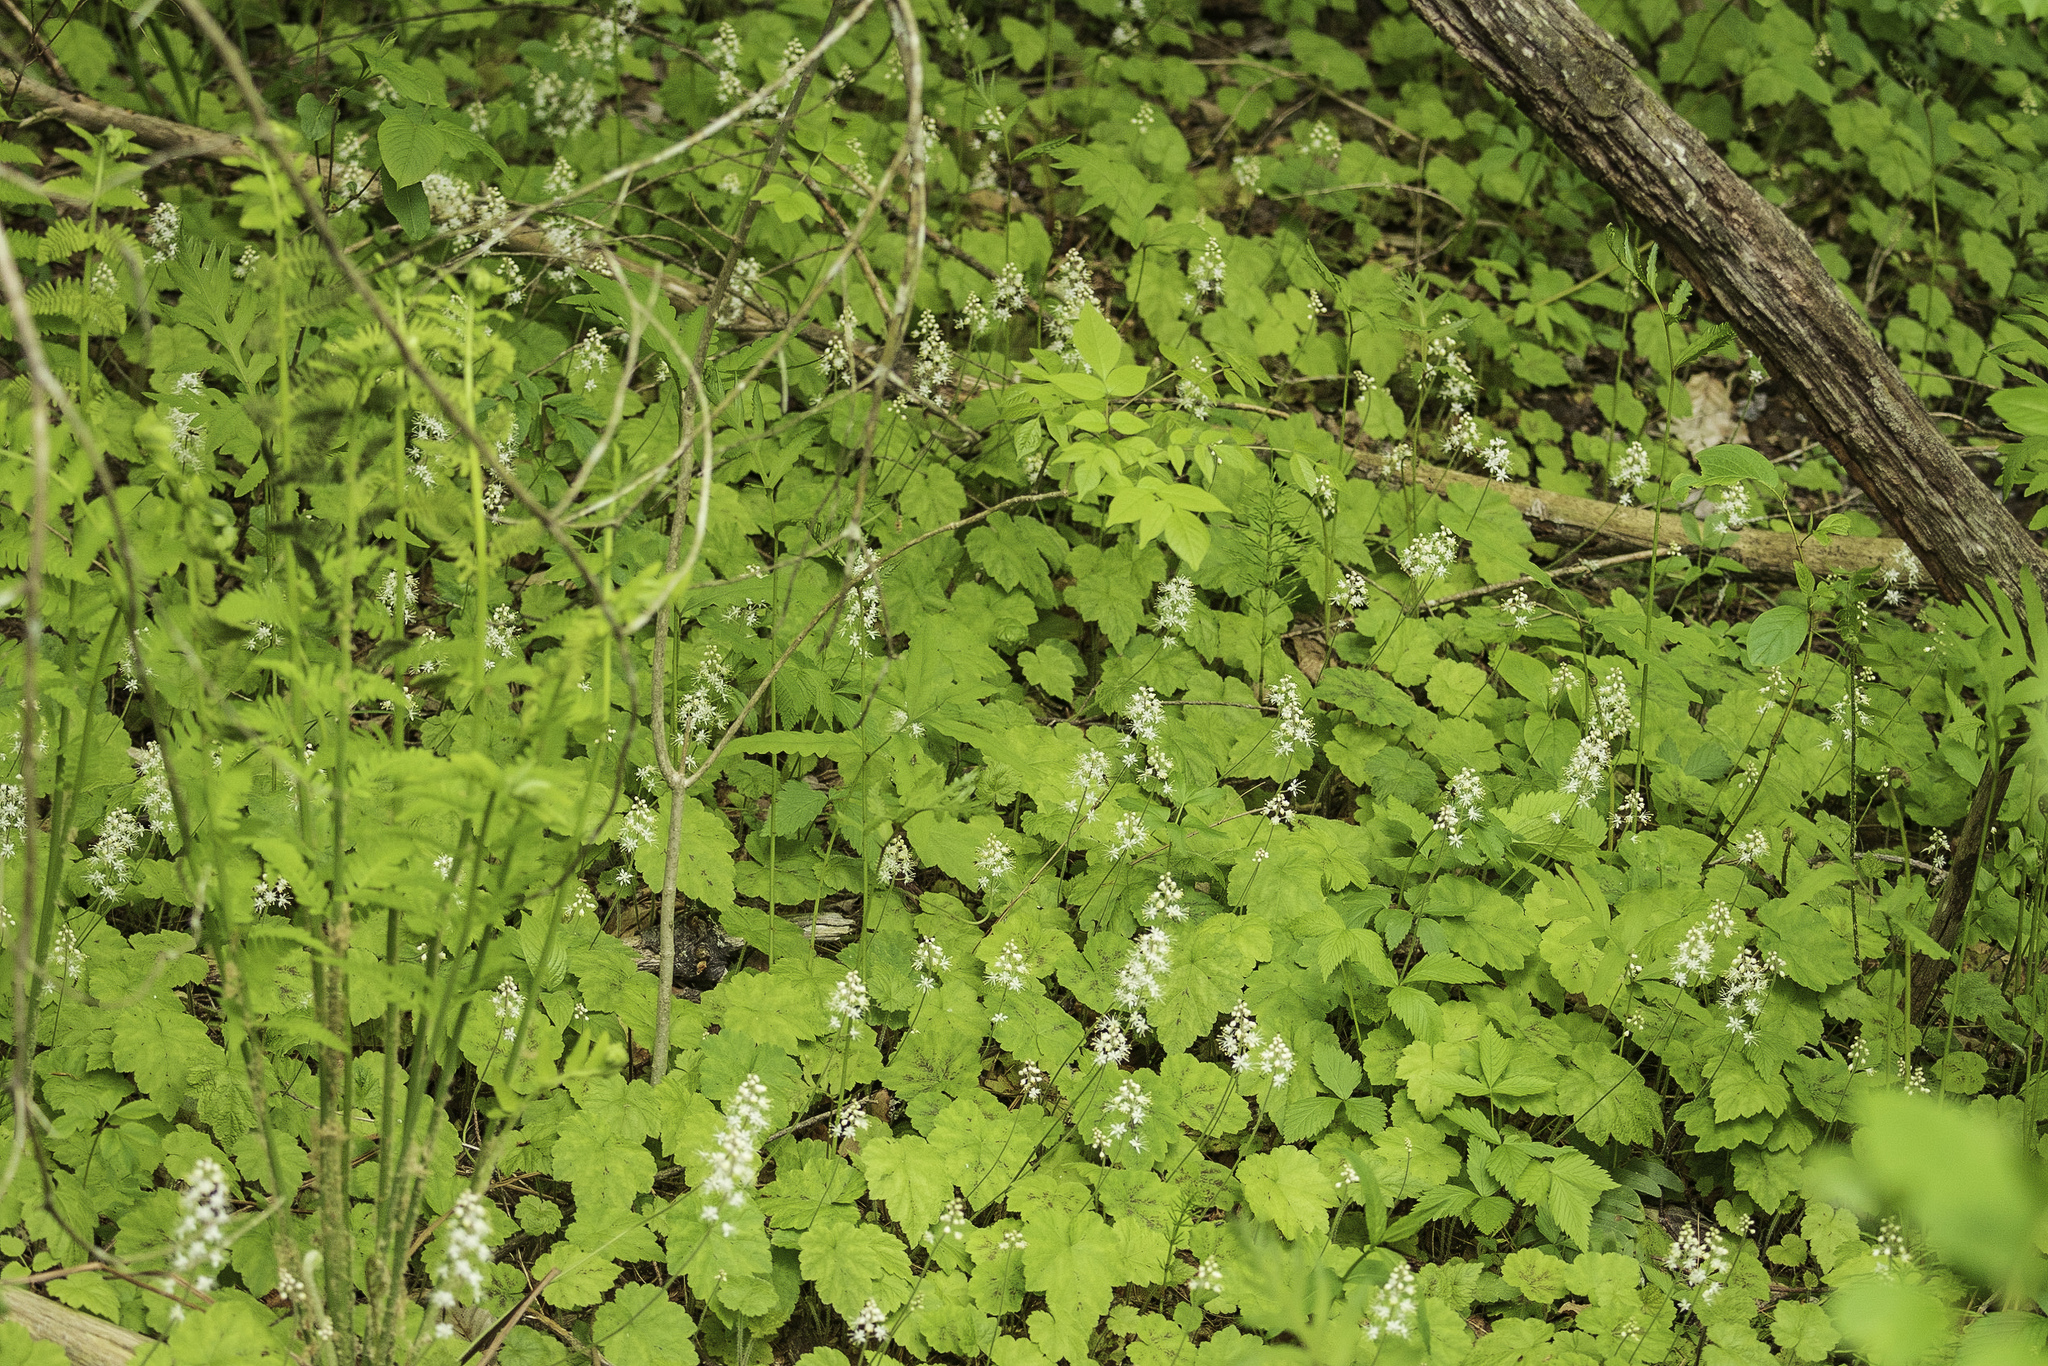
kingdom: Plantae
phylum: Tracheophyta
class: Magnoliopsida
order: Saxifragales
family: Saxifragaceae
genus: Tiarella
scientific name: Tiarella stolonifera
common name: Stoloniferous foamflower
